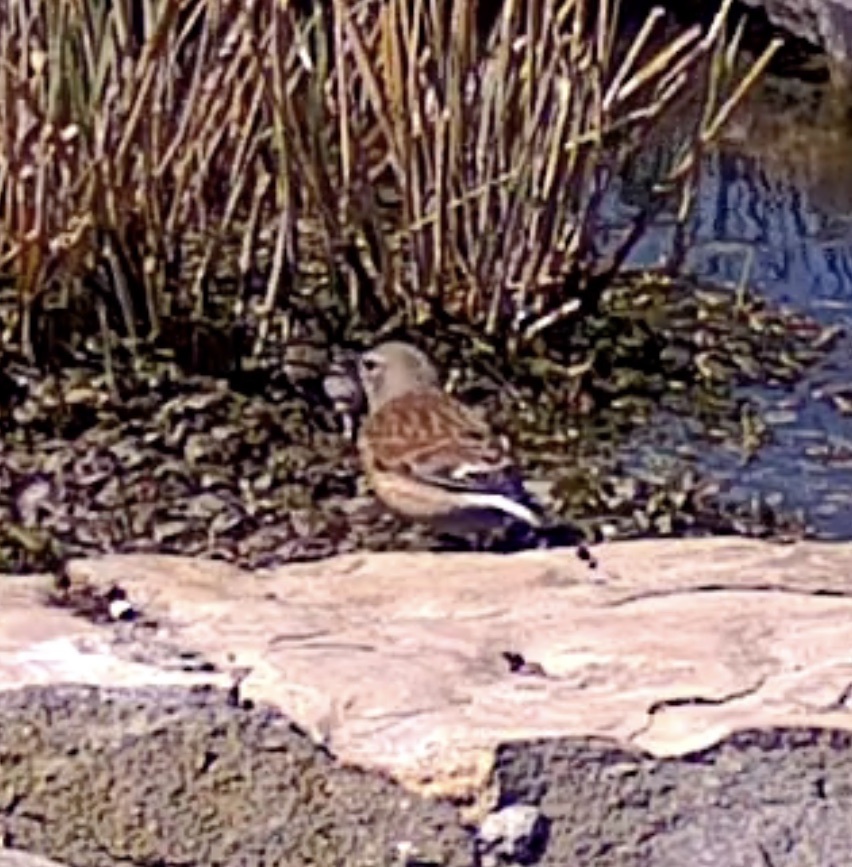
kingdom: Animalia
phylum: Chordata
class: Aves
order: Passeriformes
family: Fringillidae
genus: Linaria
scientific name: Linaria cannabina
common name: Common linnet
